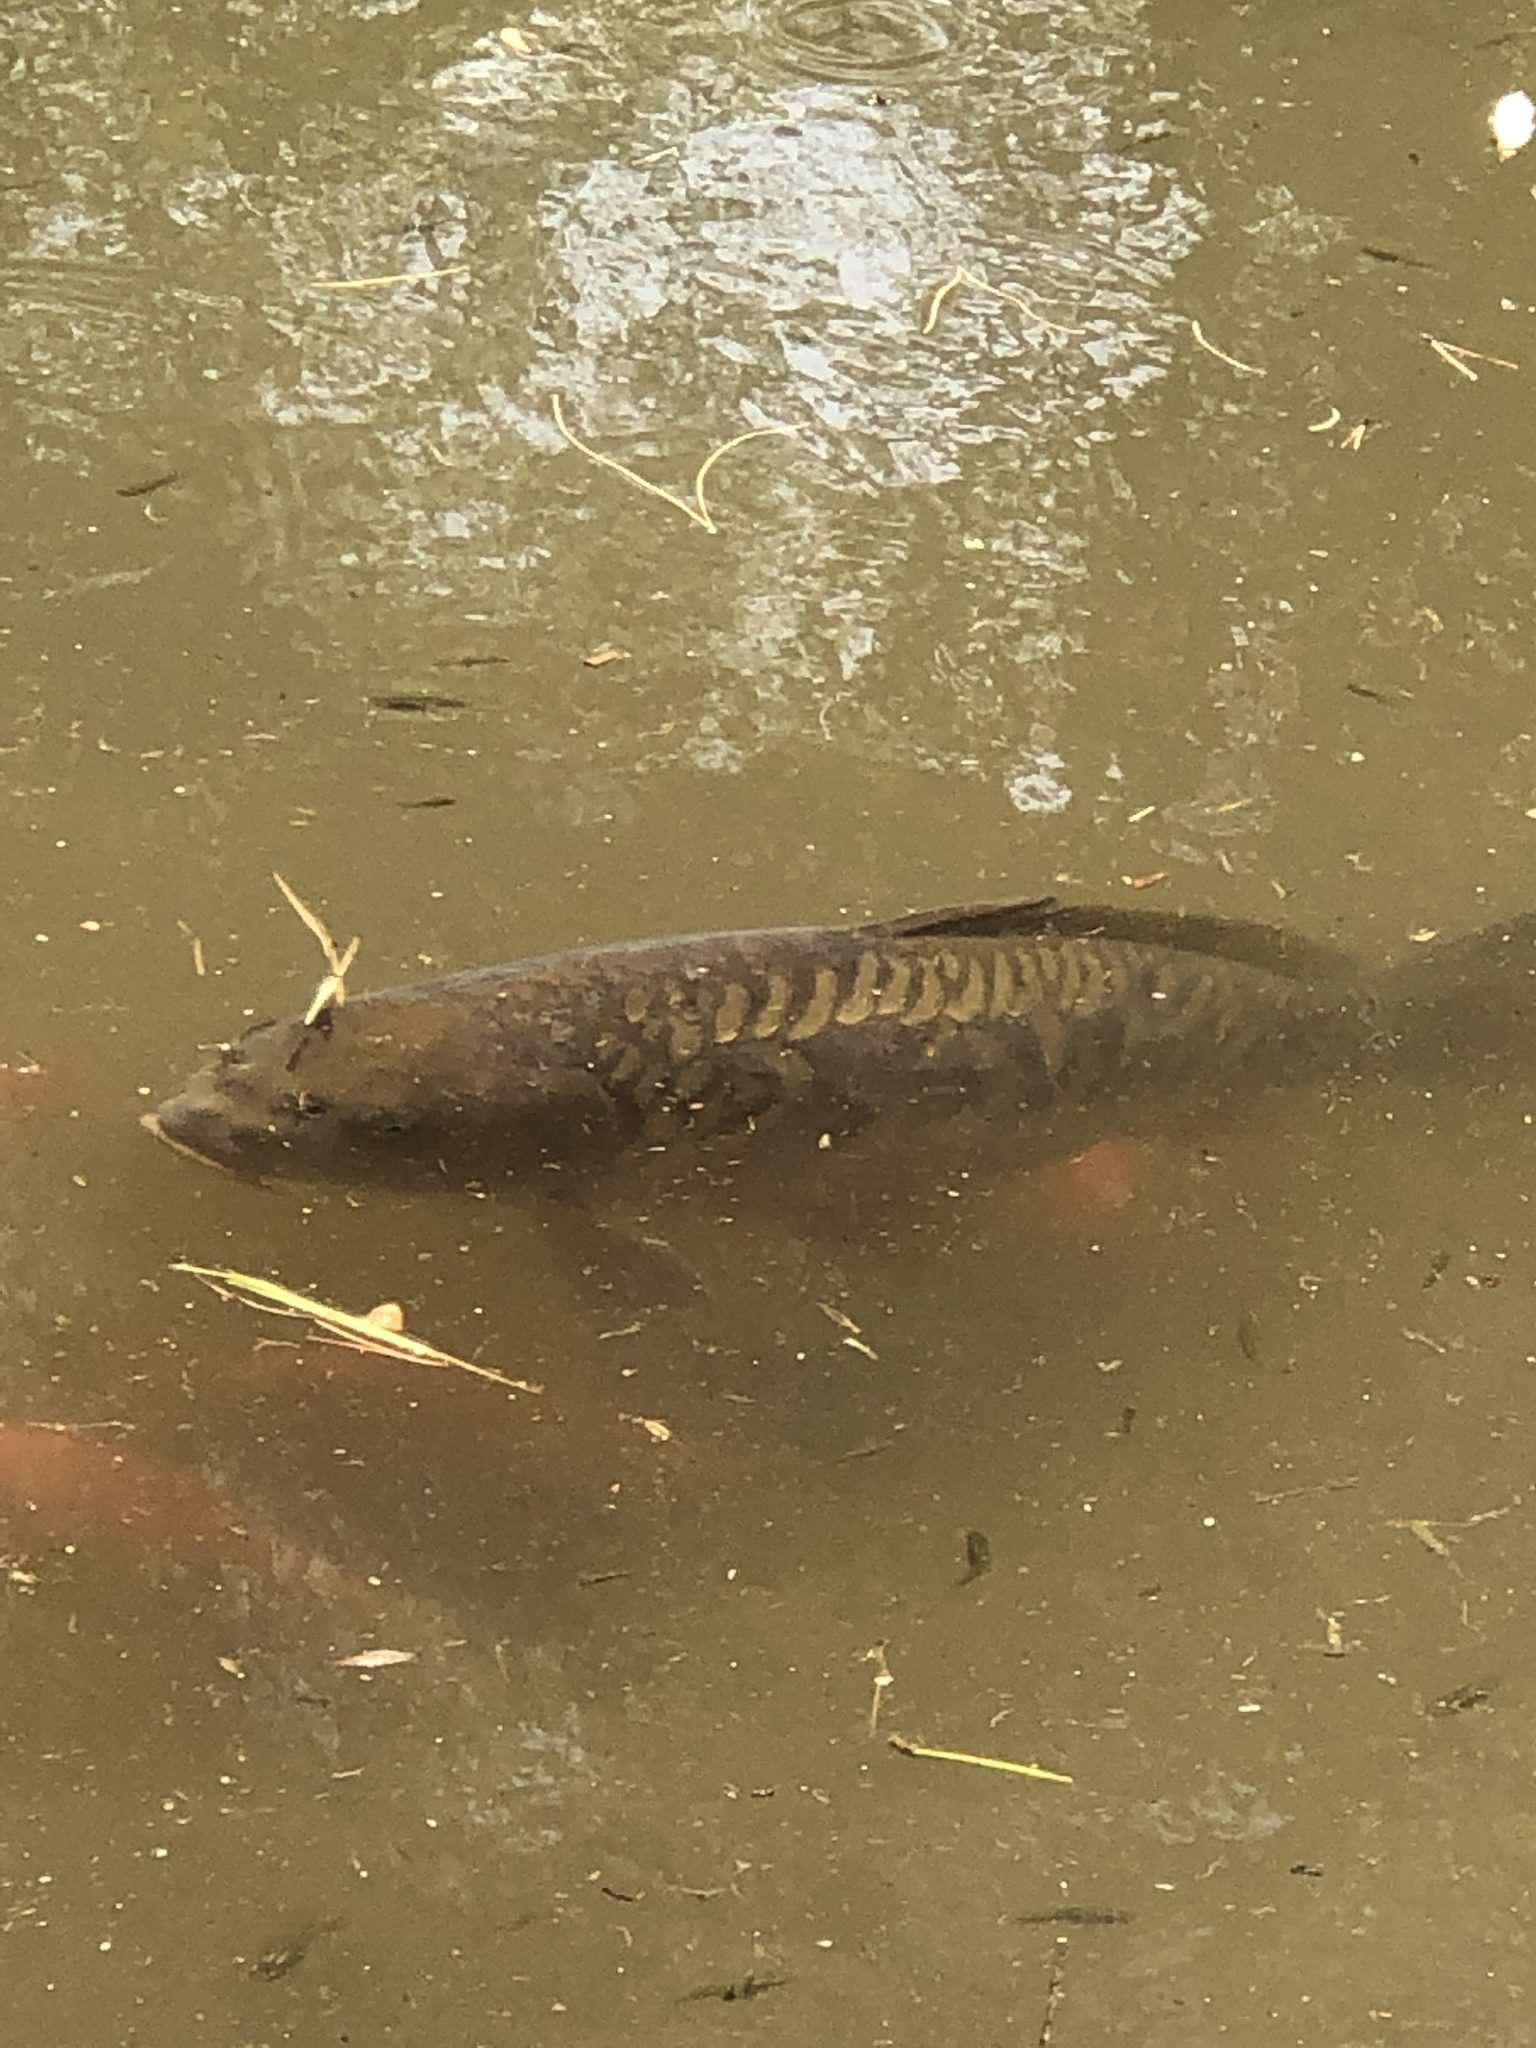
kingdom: Animalia
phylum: Chordata
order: Cypriniformes
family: Cyprinidae
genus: Cyprinus
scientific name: Cyprinus carpio
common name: Common carp
